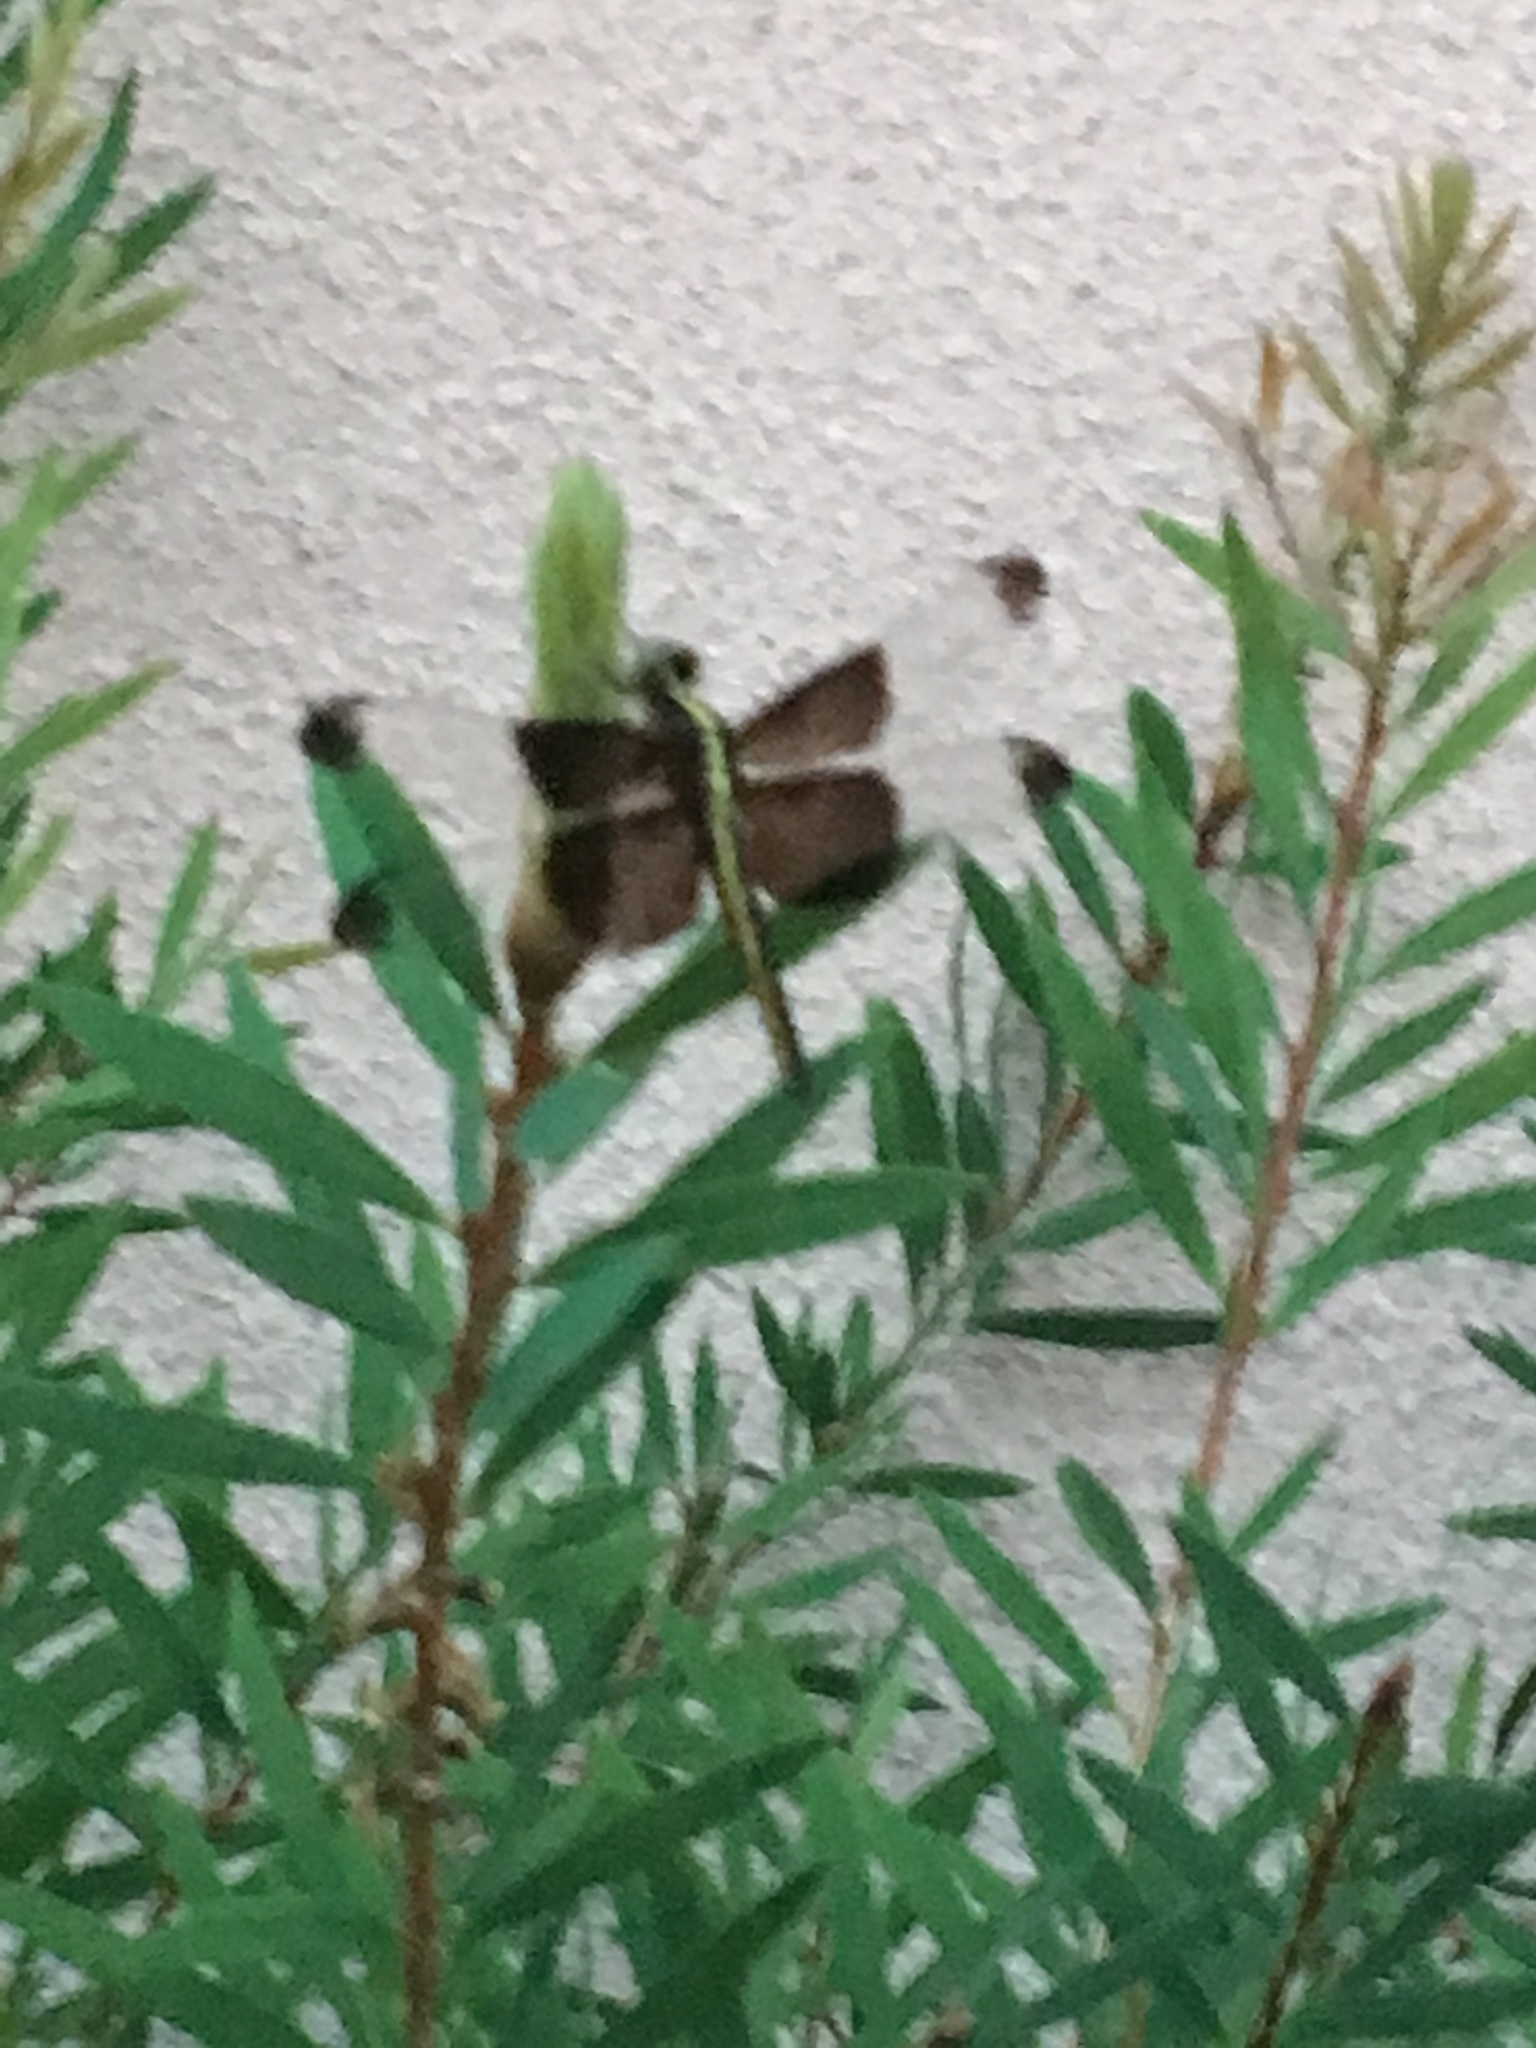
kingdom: Animalia
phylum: Arthropoda
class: Insecta
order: Odonata
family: Libellulidae
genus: Libellula
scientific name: Libellula luctuosa
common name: Widow skimmer
